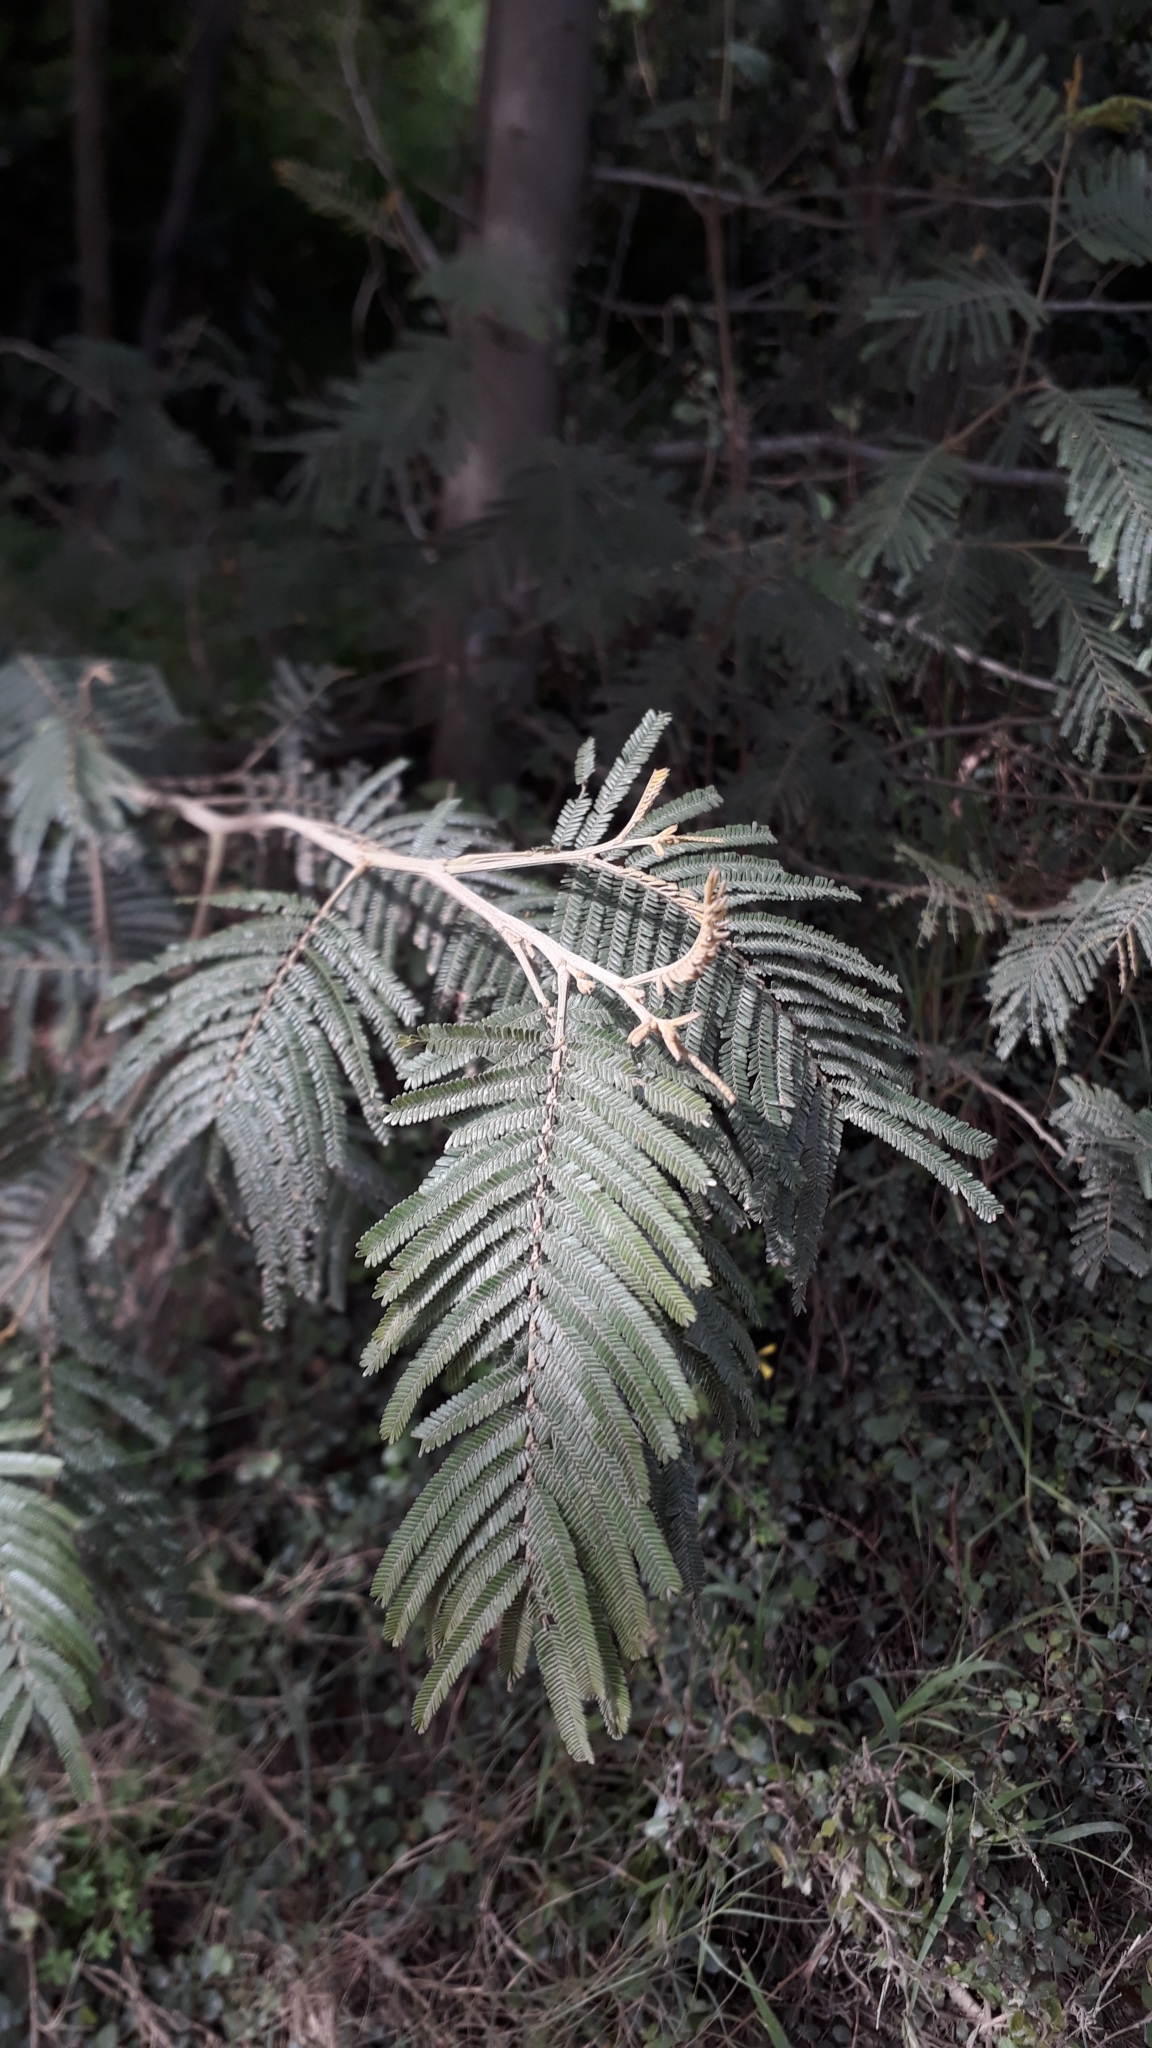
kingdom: Plantae
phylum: Tracheophyta
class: Magnoliopsida
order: Fabales
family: Fabaceae
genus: Acacia
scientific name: Acacia mearnsii
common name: Black wattle
